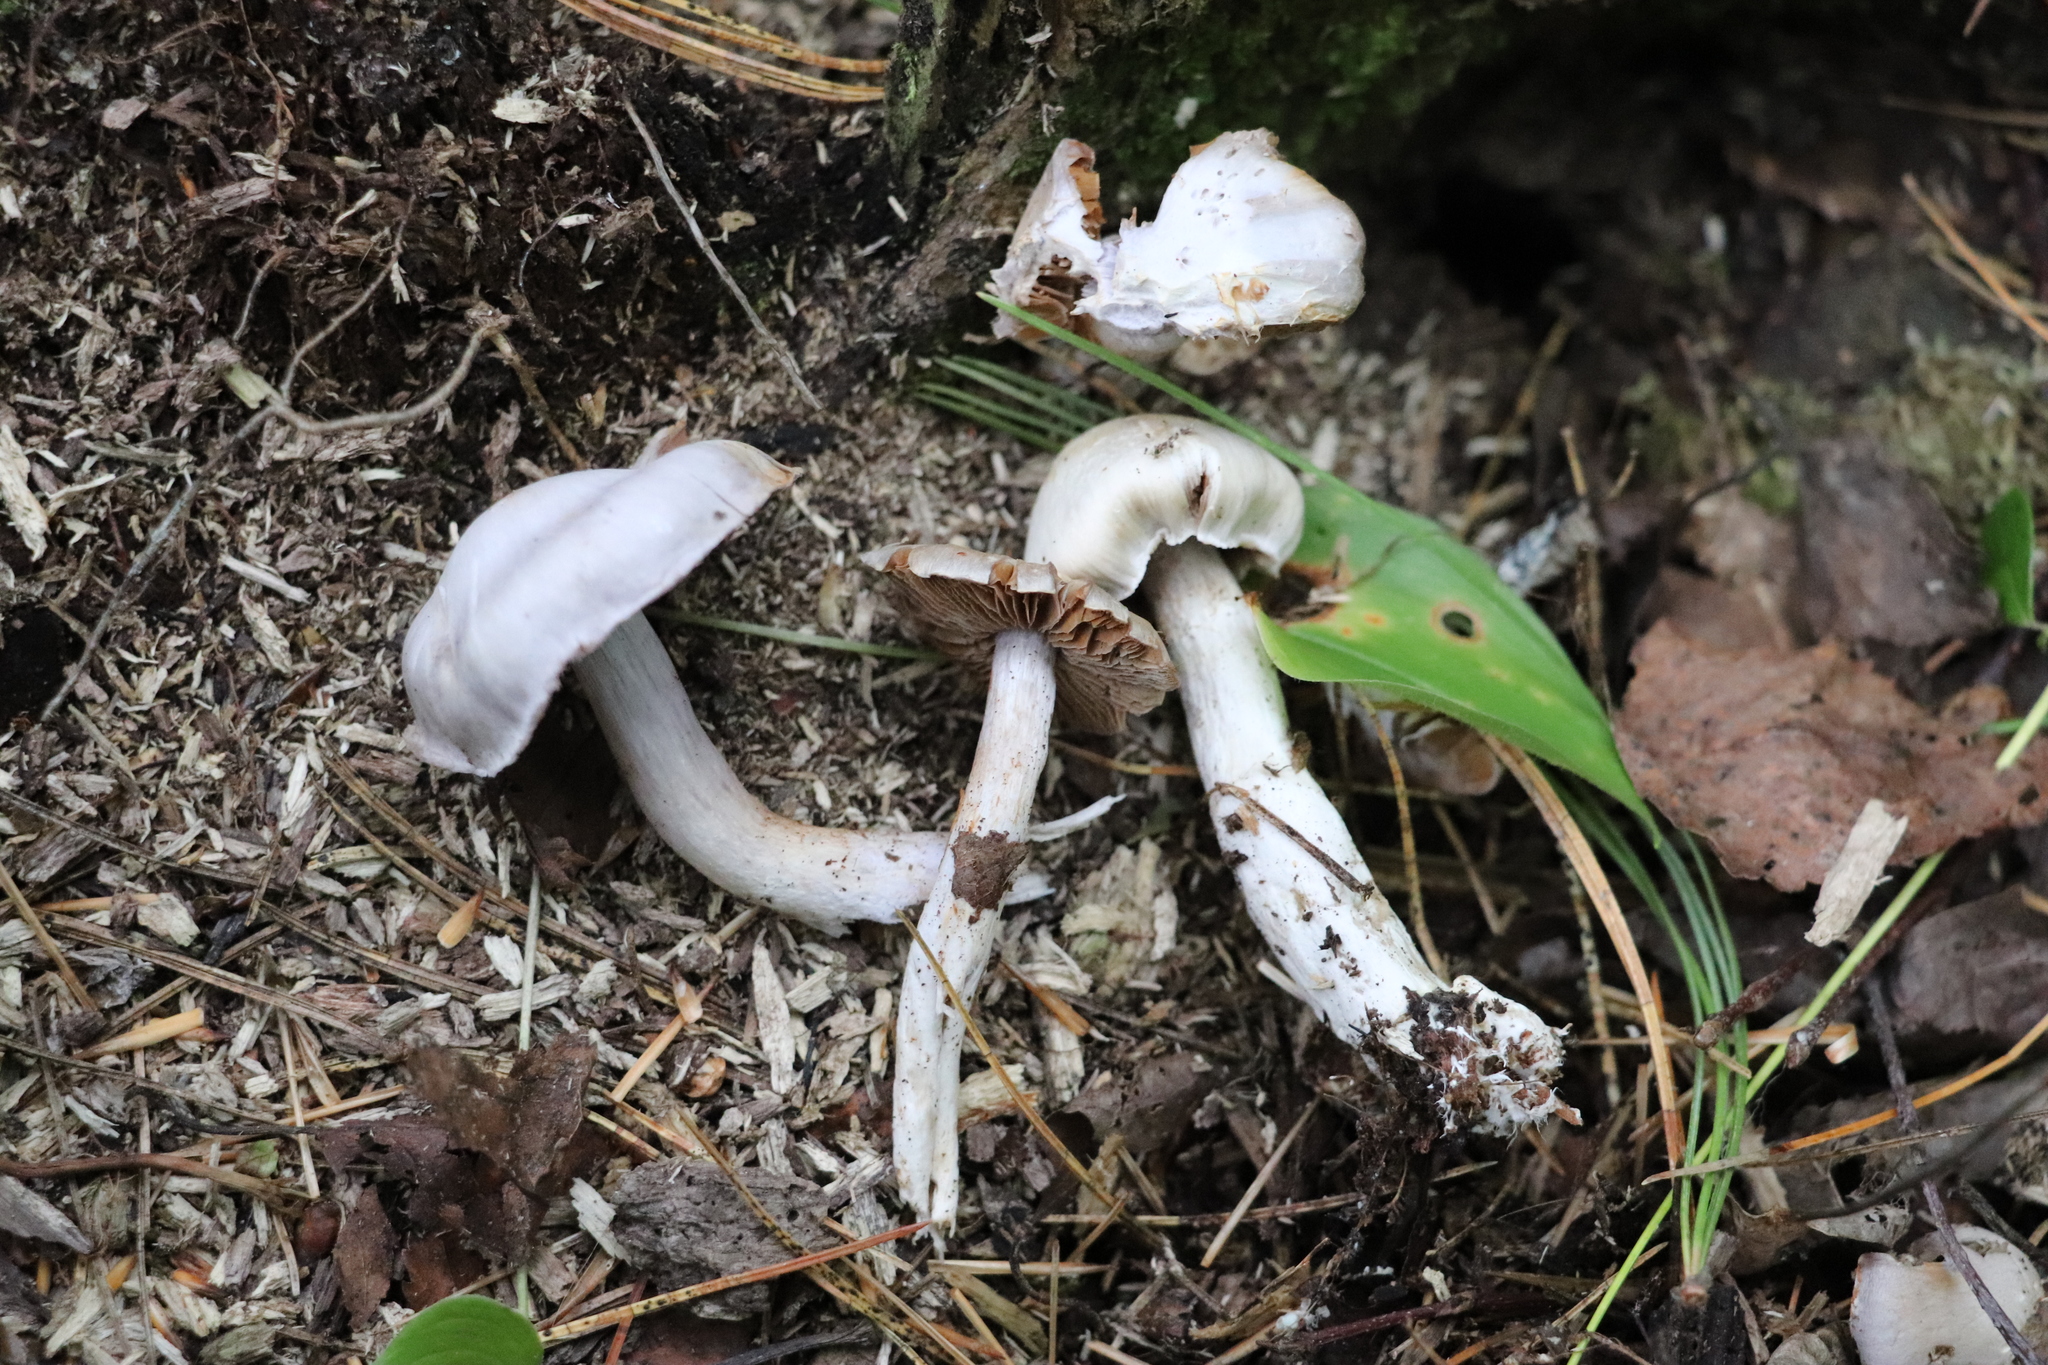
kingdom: Fungi
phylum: Basidiomycota
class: Agaricomycetes
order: Agaricales
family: Cortinariaceae
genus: Cortinarius
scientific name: Cortinarius alboviolaceus
